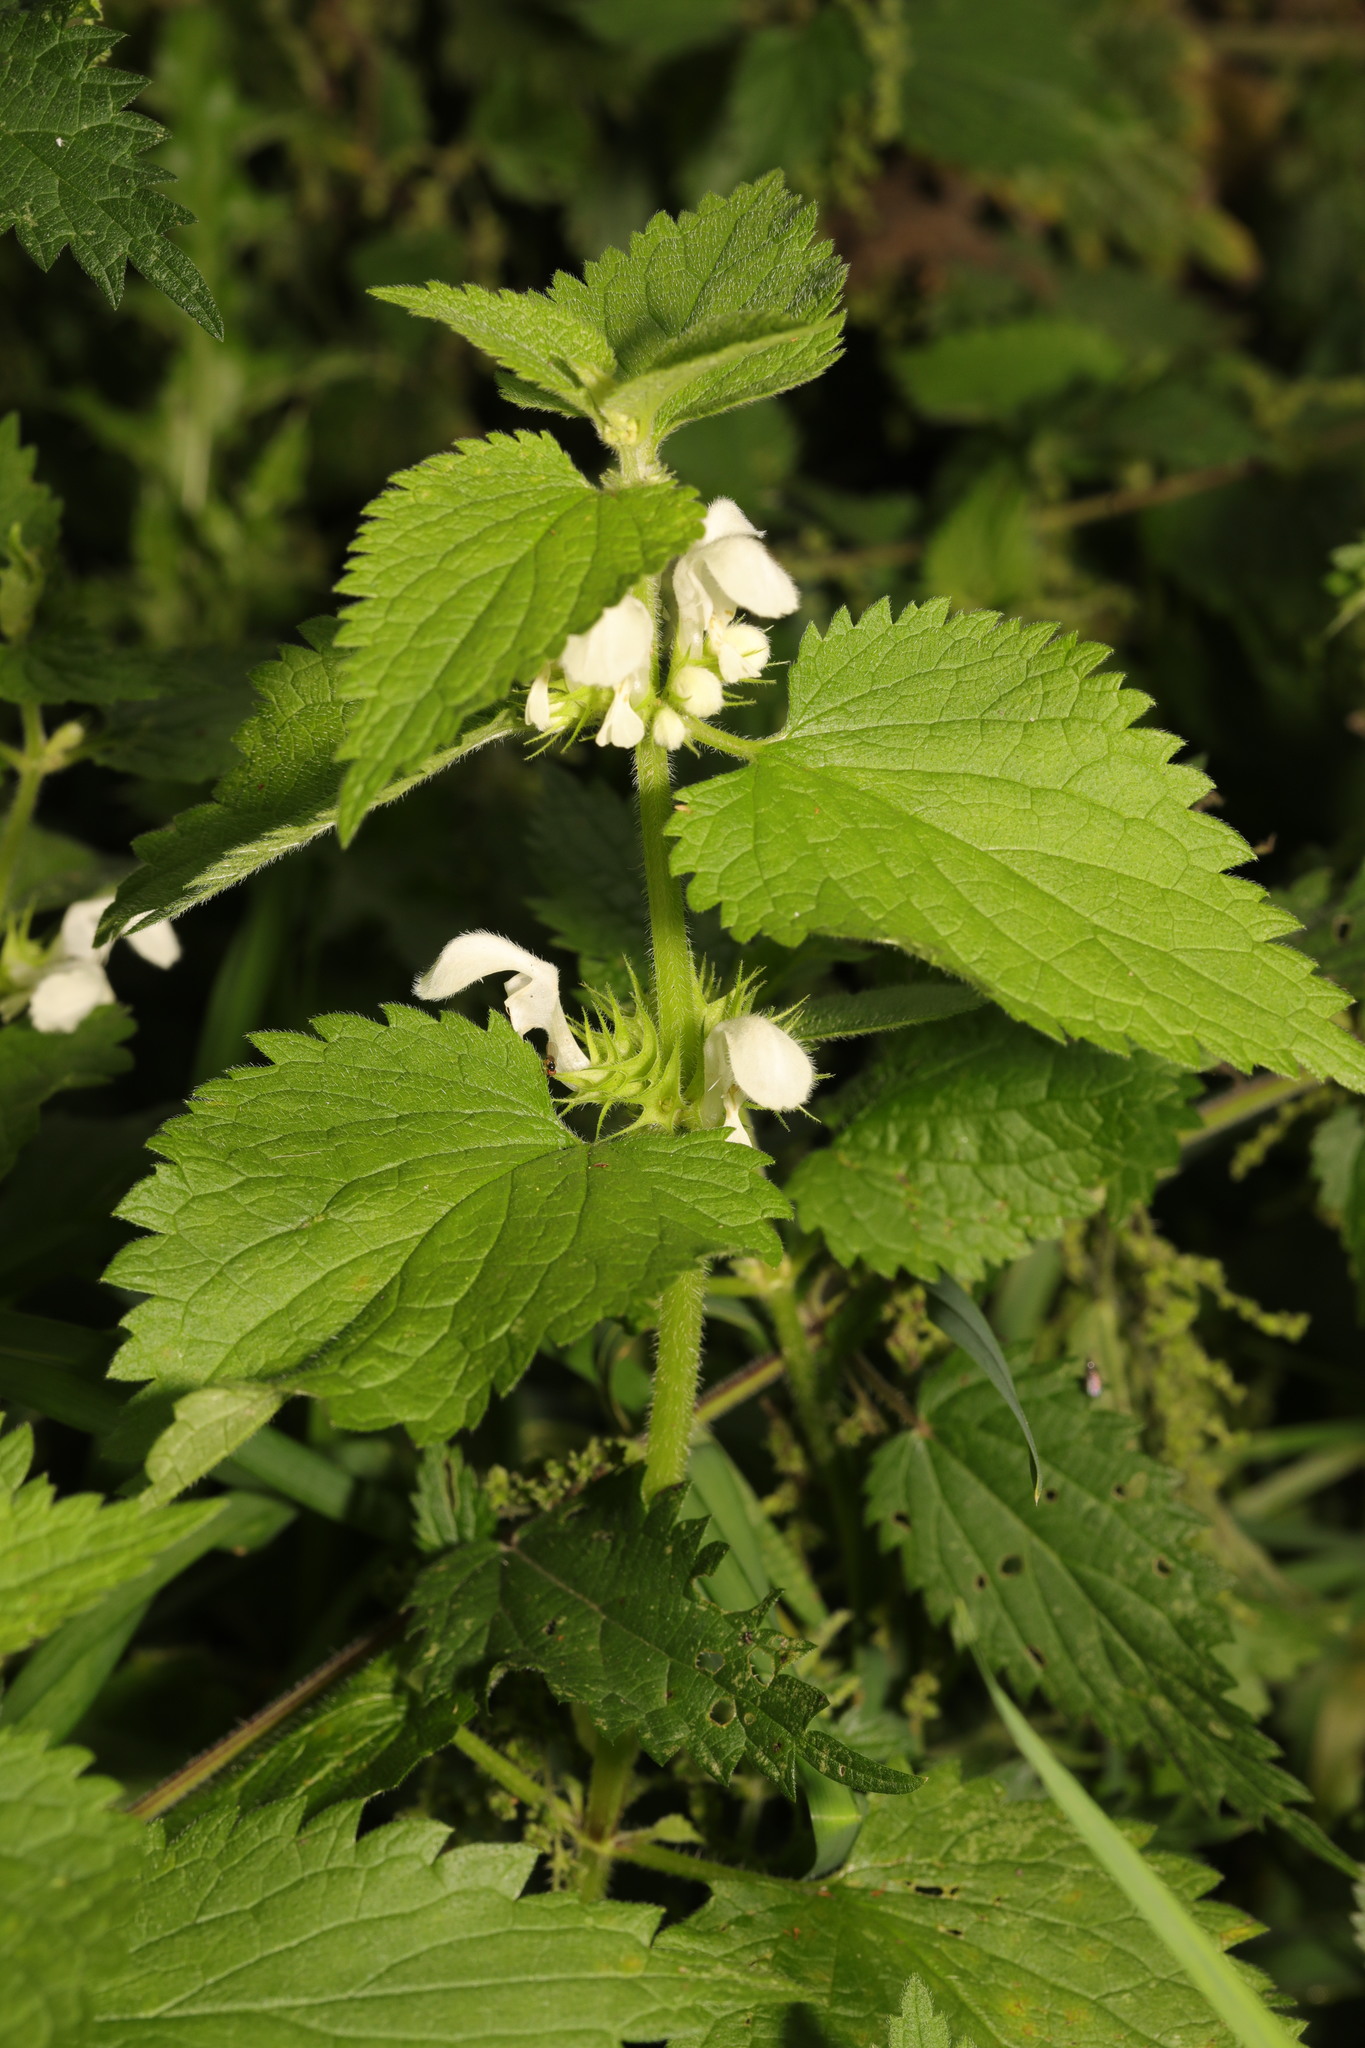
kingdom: Plantae
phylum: Tracheophyta
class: Magnoliopsida
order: Lamiales
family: Lamiaceae
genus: Lamium
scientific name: Lamium album
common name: White dead-nettle
